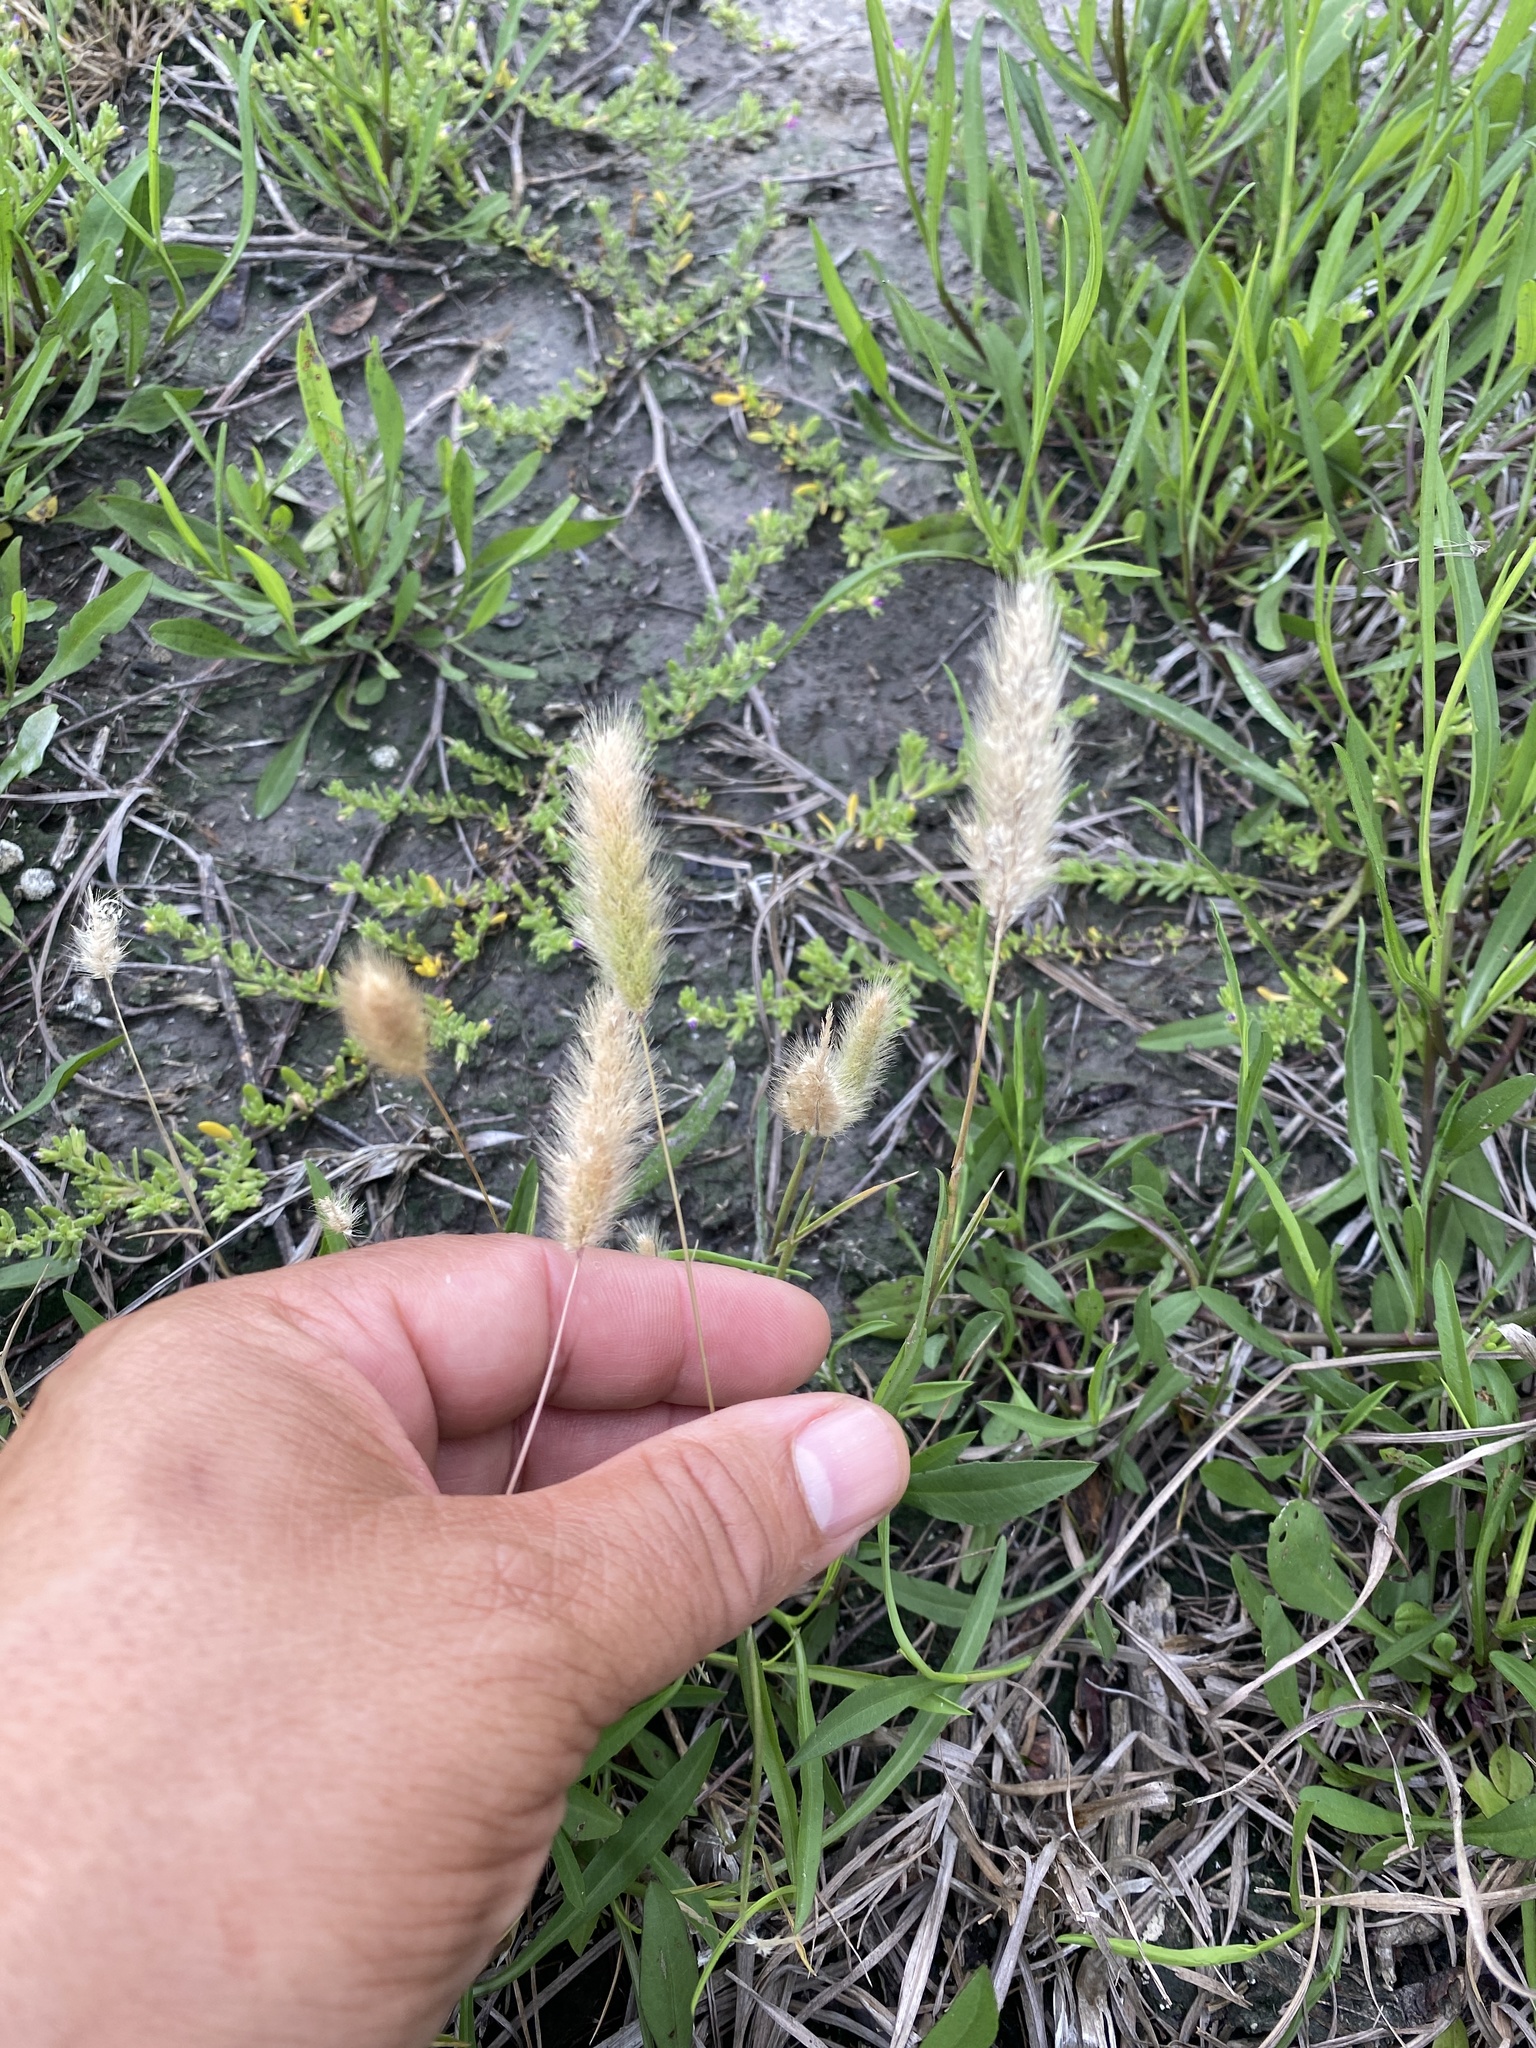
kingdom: Plantae
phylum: Tracheophyta
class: Liliopsida
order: Poales
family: Poaceae
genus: Polypogon
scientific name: Polypogon monspeliensis
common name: Annual rabbitsfoot grass
